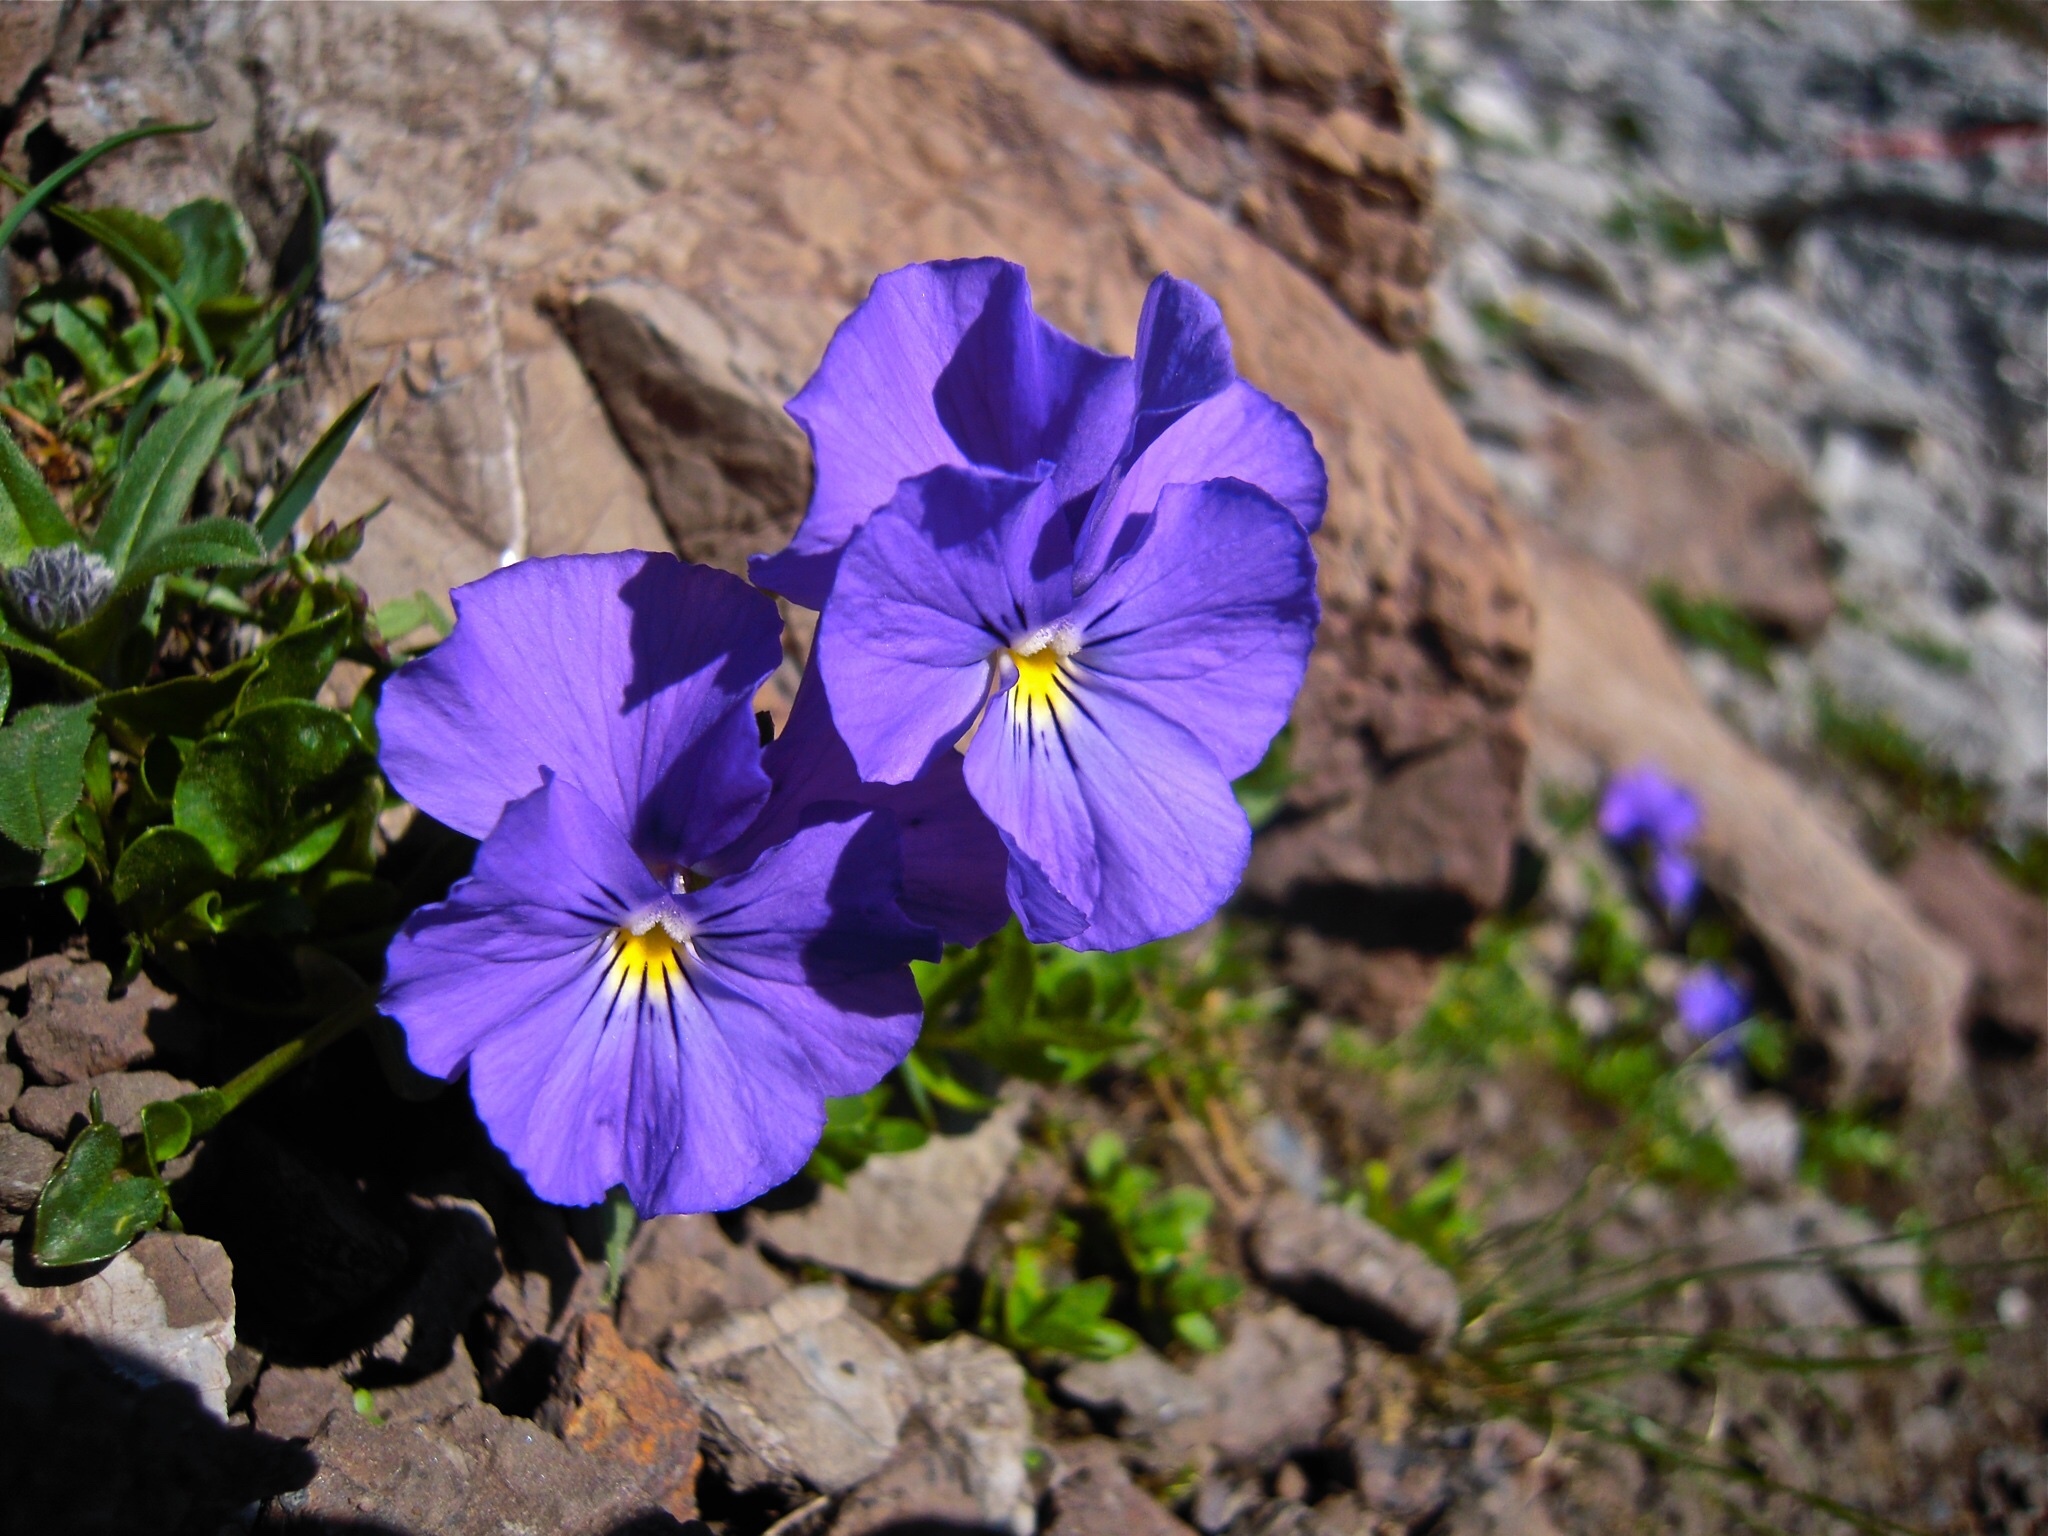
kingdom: Plantae
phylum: Tracheophyta
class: Magnoliopsida
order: Malpighiales
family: Violaceae
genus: Viola
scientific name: Viola calcarata
